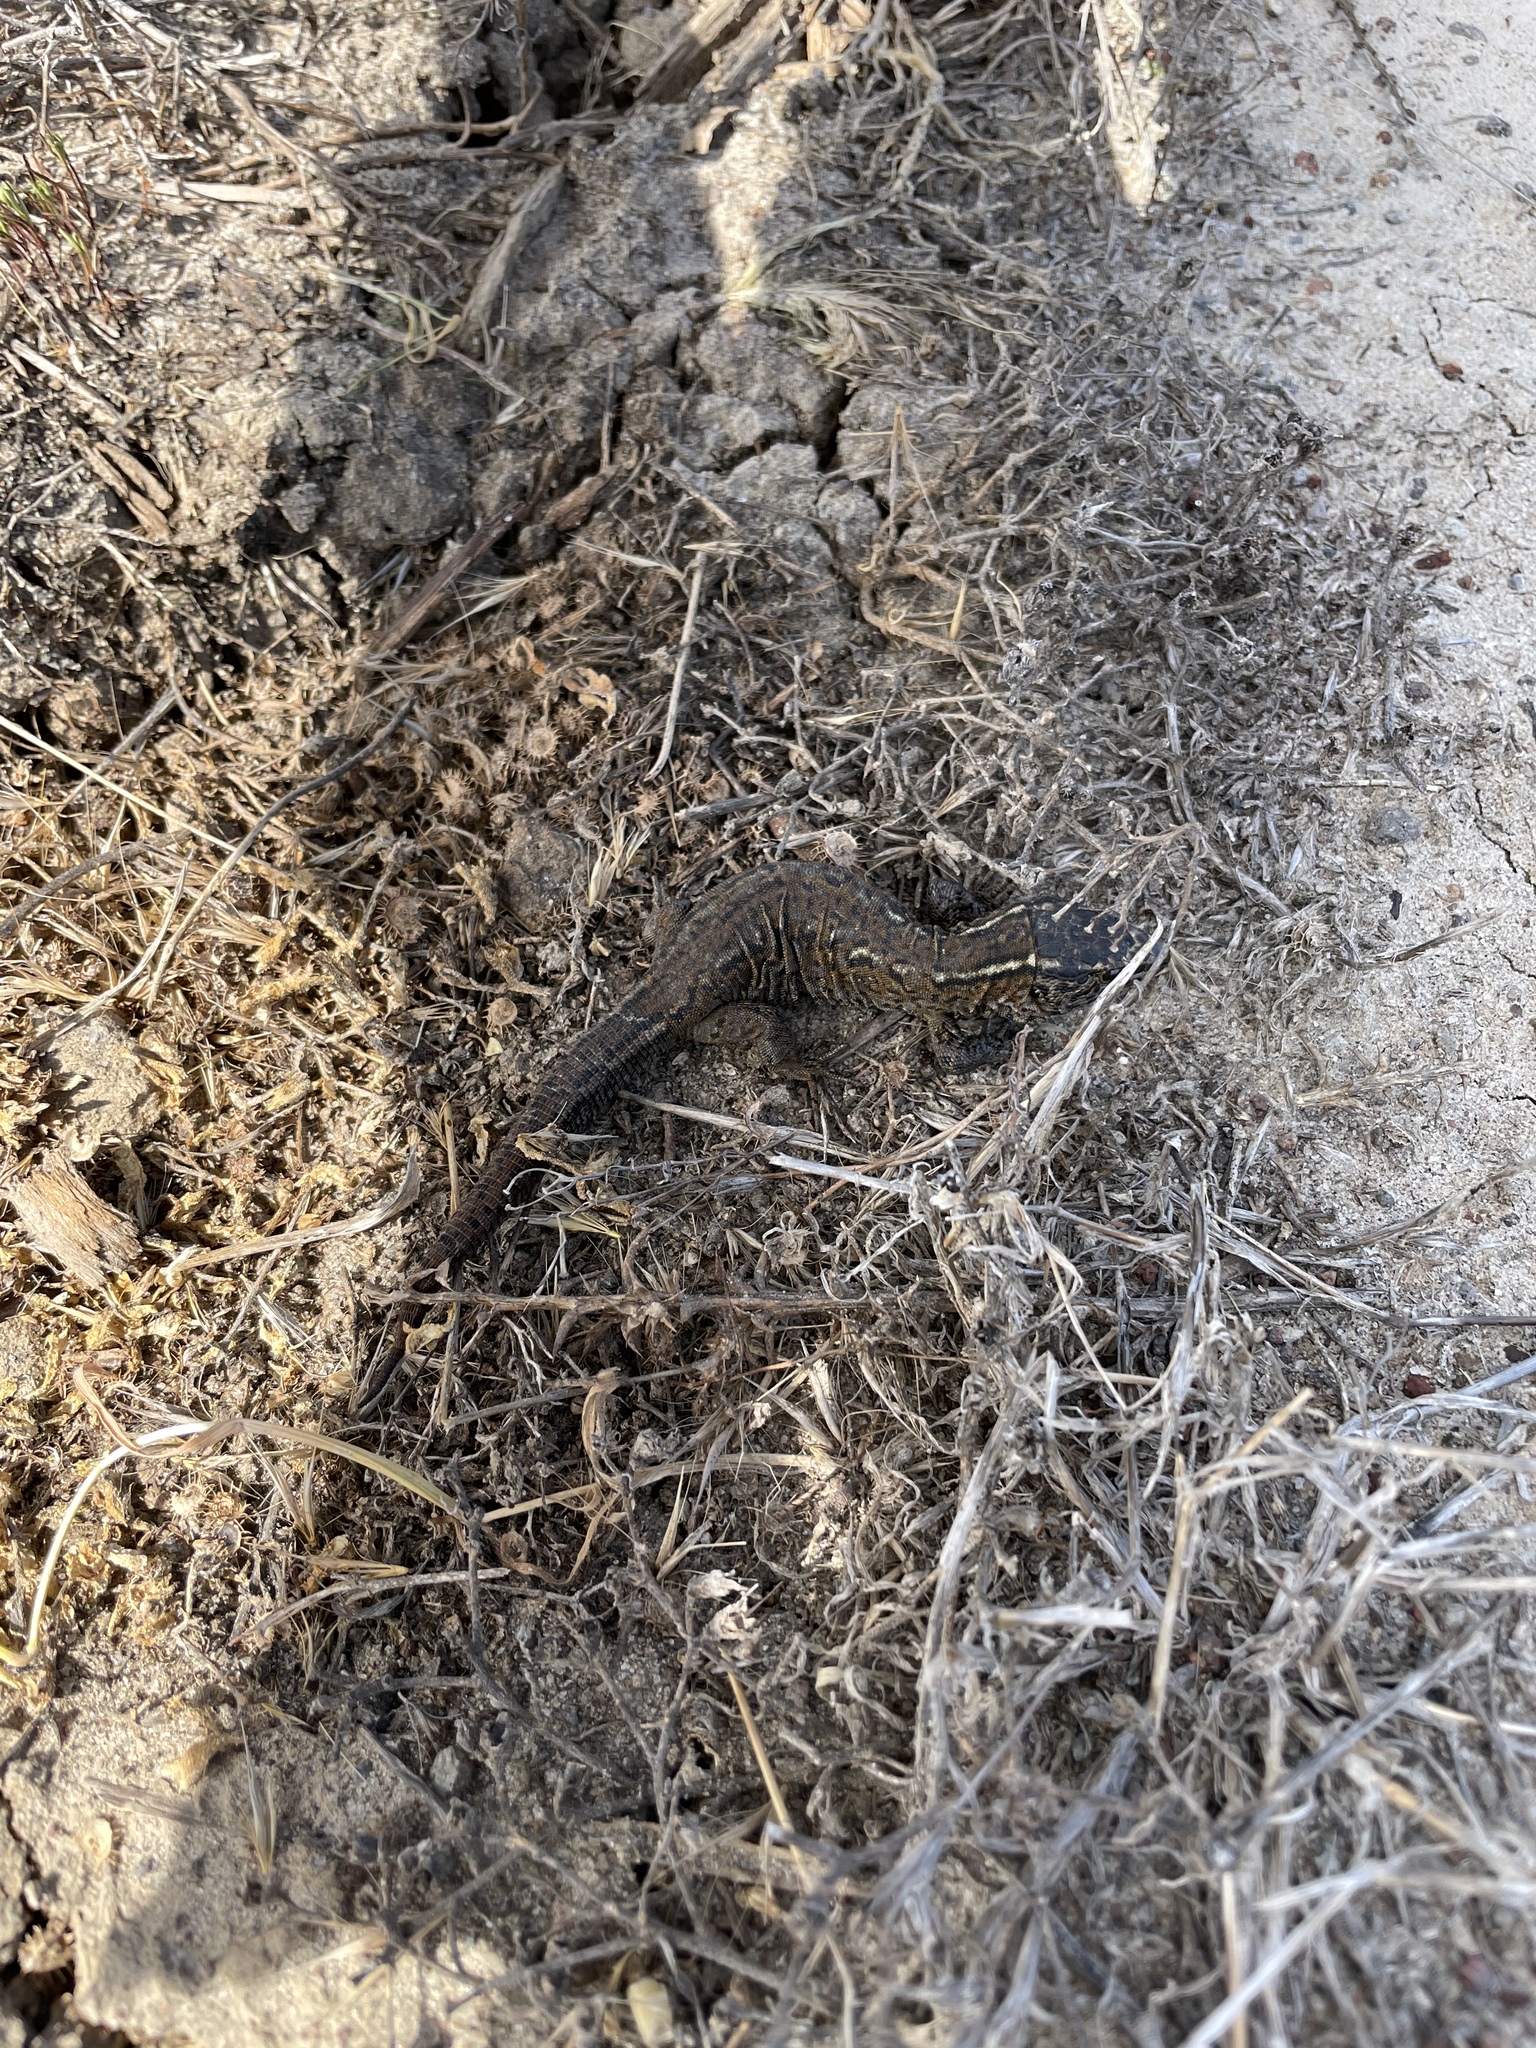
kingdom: Animalia
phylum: Chordata
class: Squamata
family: Xantusiidae
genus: Xantusia
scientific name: Xantusia riversiana
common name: Island night lizard
